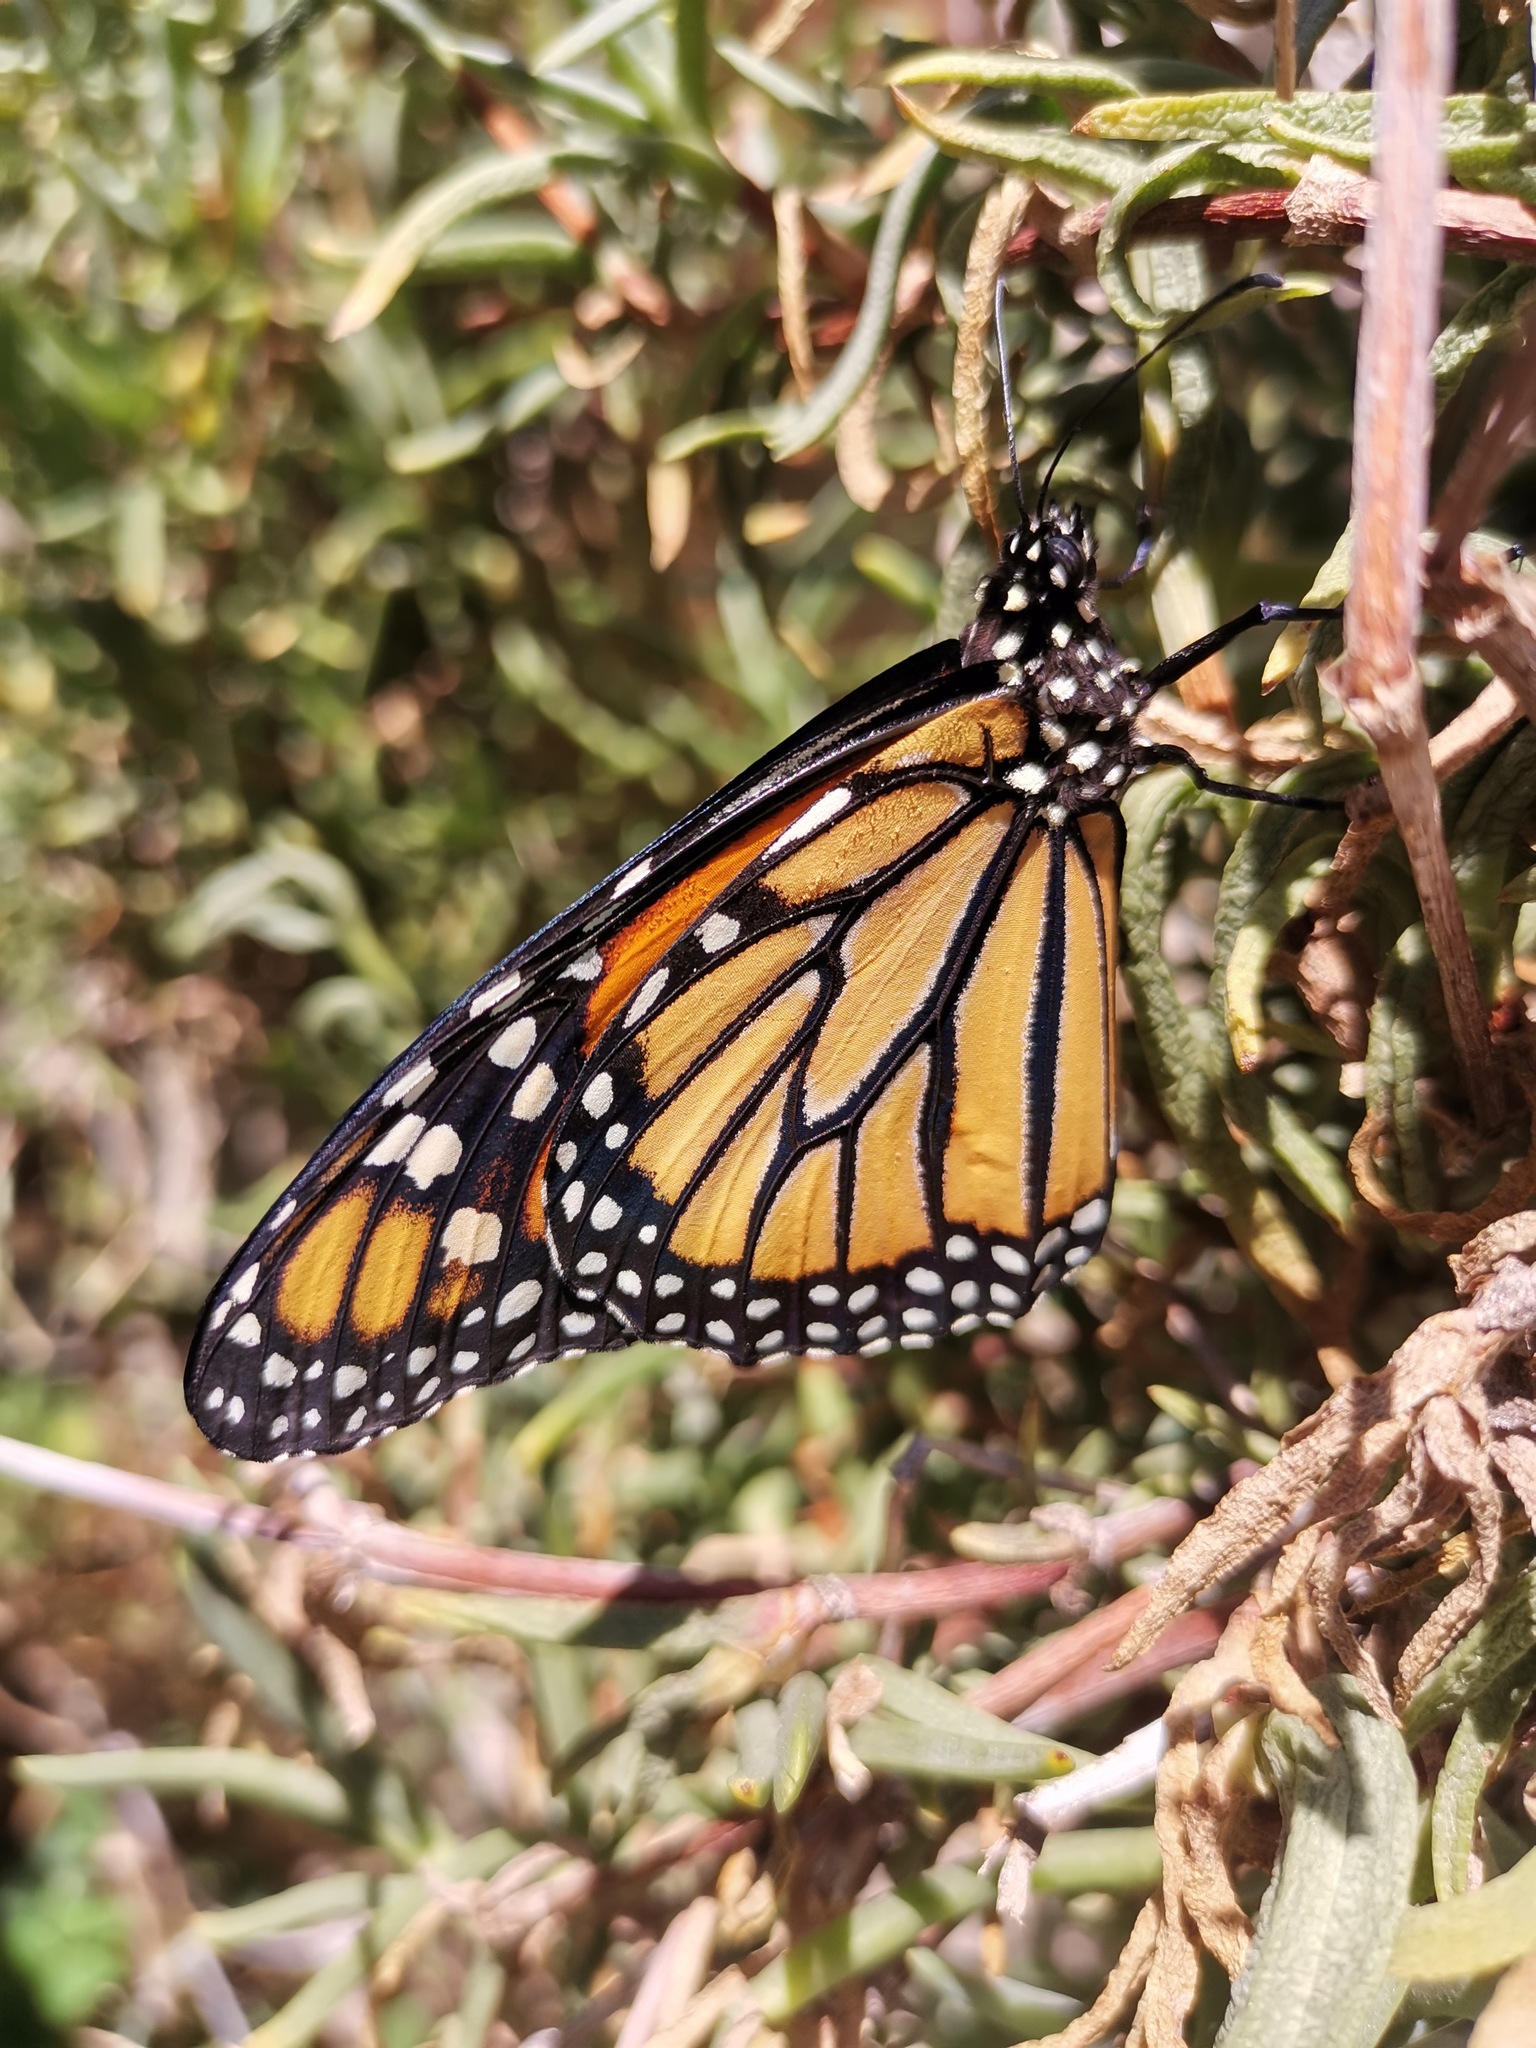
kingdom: Animalia
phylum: Arthropoda
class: Insecta
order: Lepidoptera
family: Nymphalidae
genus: Danaus
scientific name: Danaus plexippus
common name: Monarch
